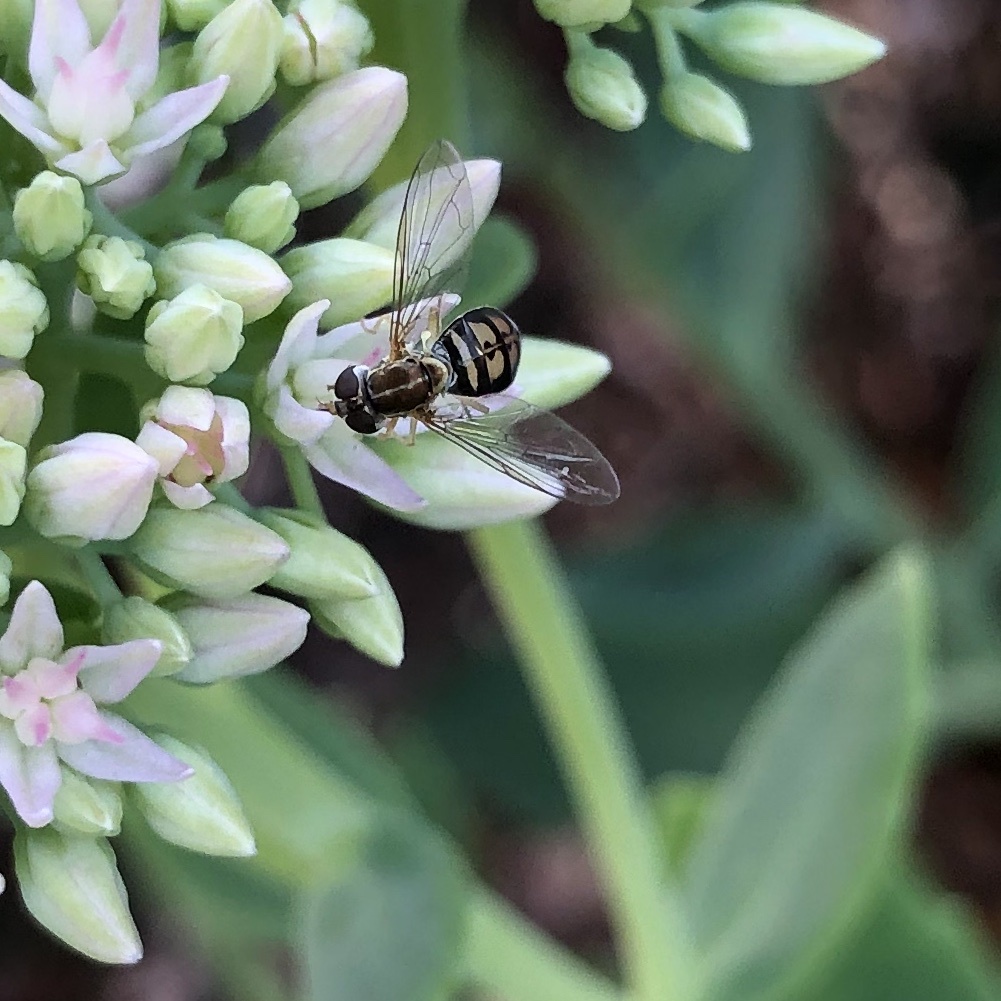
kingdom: Animalia
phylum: Arthropoda
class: Insecta
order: Diptera
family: Syrphidae
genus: Toxomerus
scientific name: Toxomerus marginatus
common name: Syrphid fly
